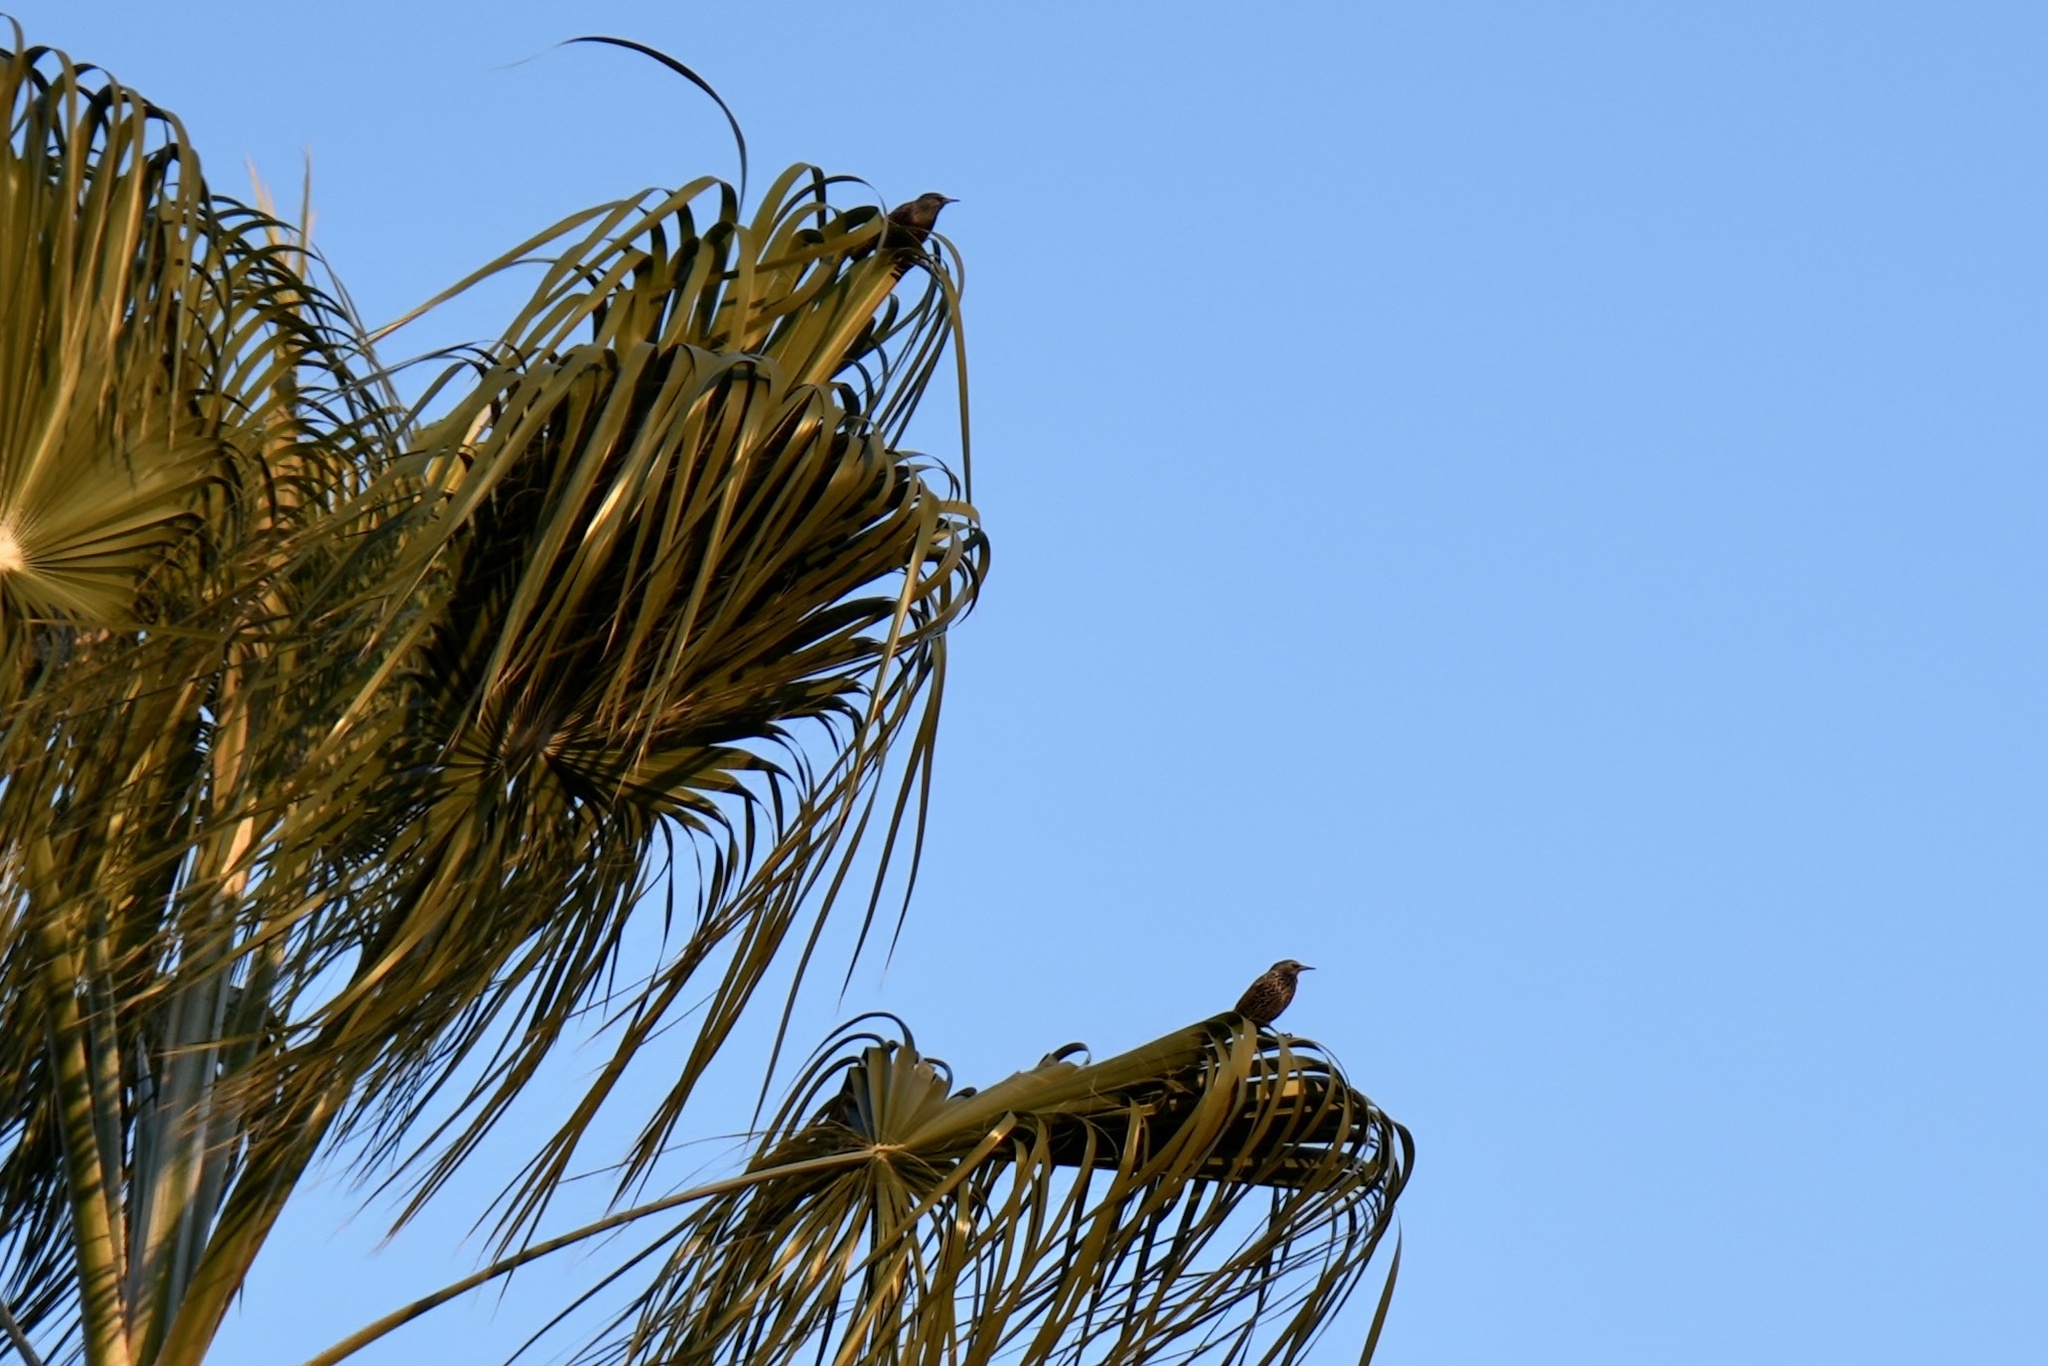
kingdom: Animalia
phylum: Chordata
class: Aves
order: Passeriformes
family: Sturnidae
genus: Sturnus
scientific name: Sturnus vulgaris
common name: Common starling
